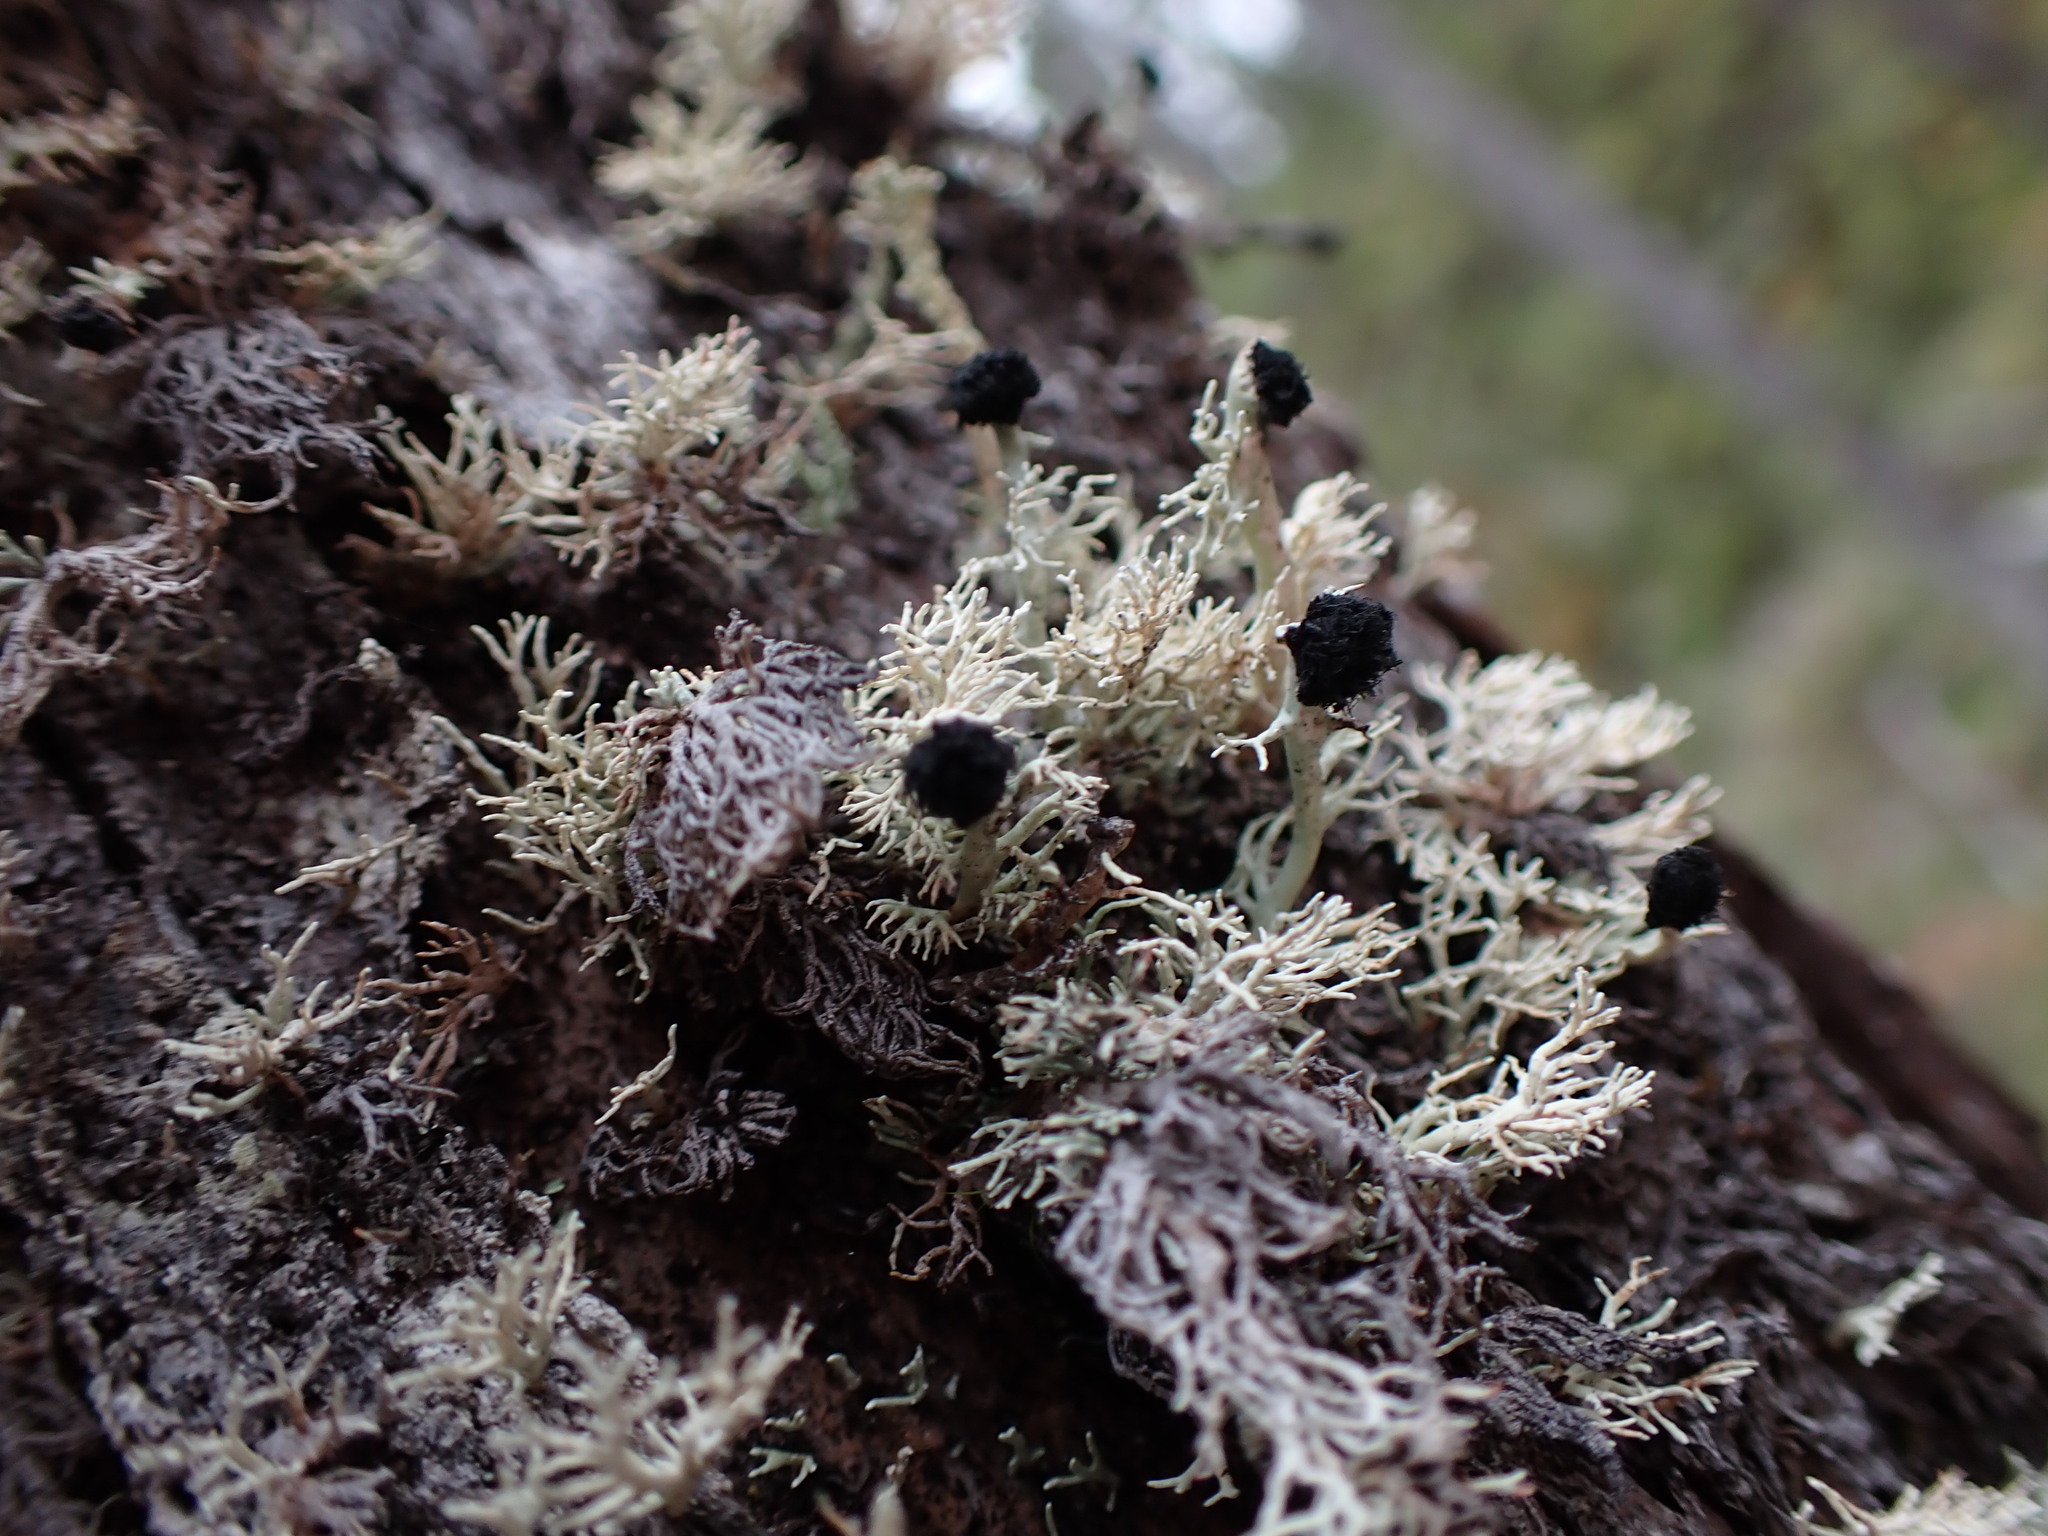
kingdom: Fungi
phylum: Ascomycota
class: Lecanoromycetes
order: Lecanorales
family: Sphaerophoraceae
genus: Bunodophoron
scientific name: Bunodophoron melanocarpum
